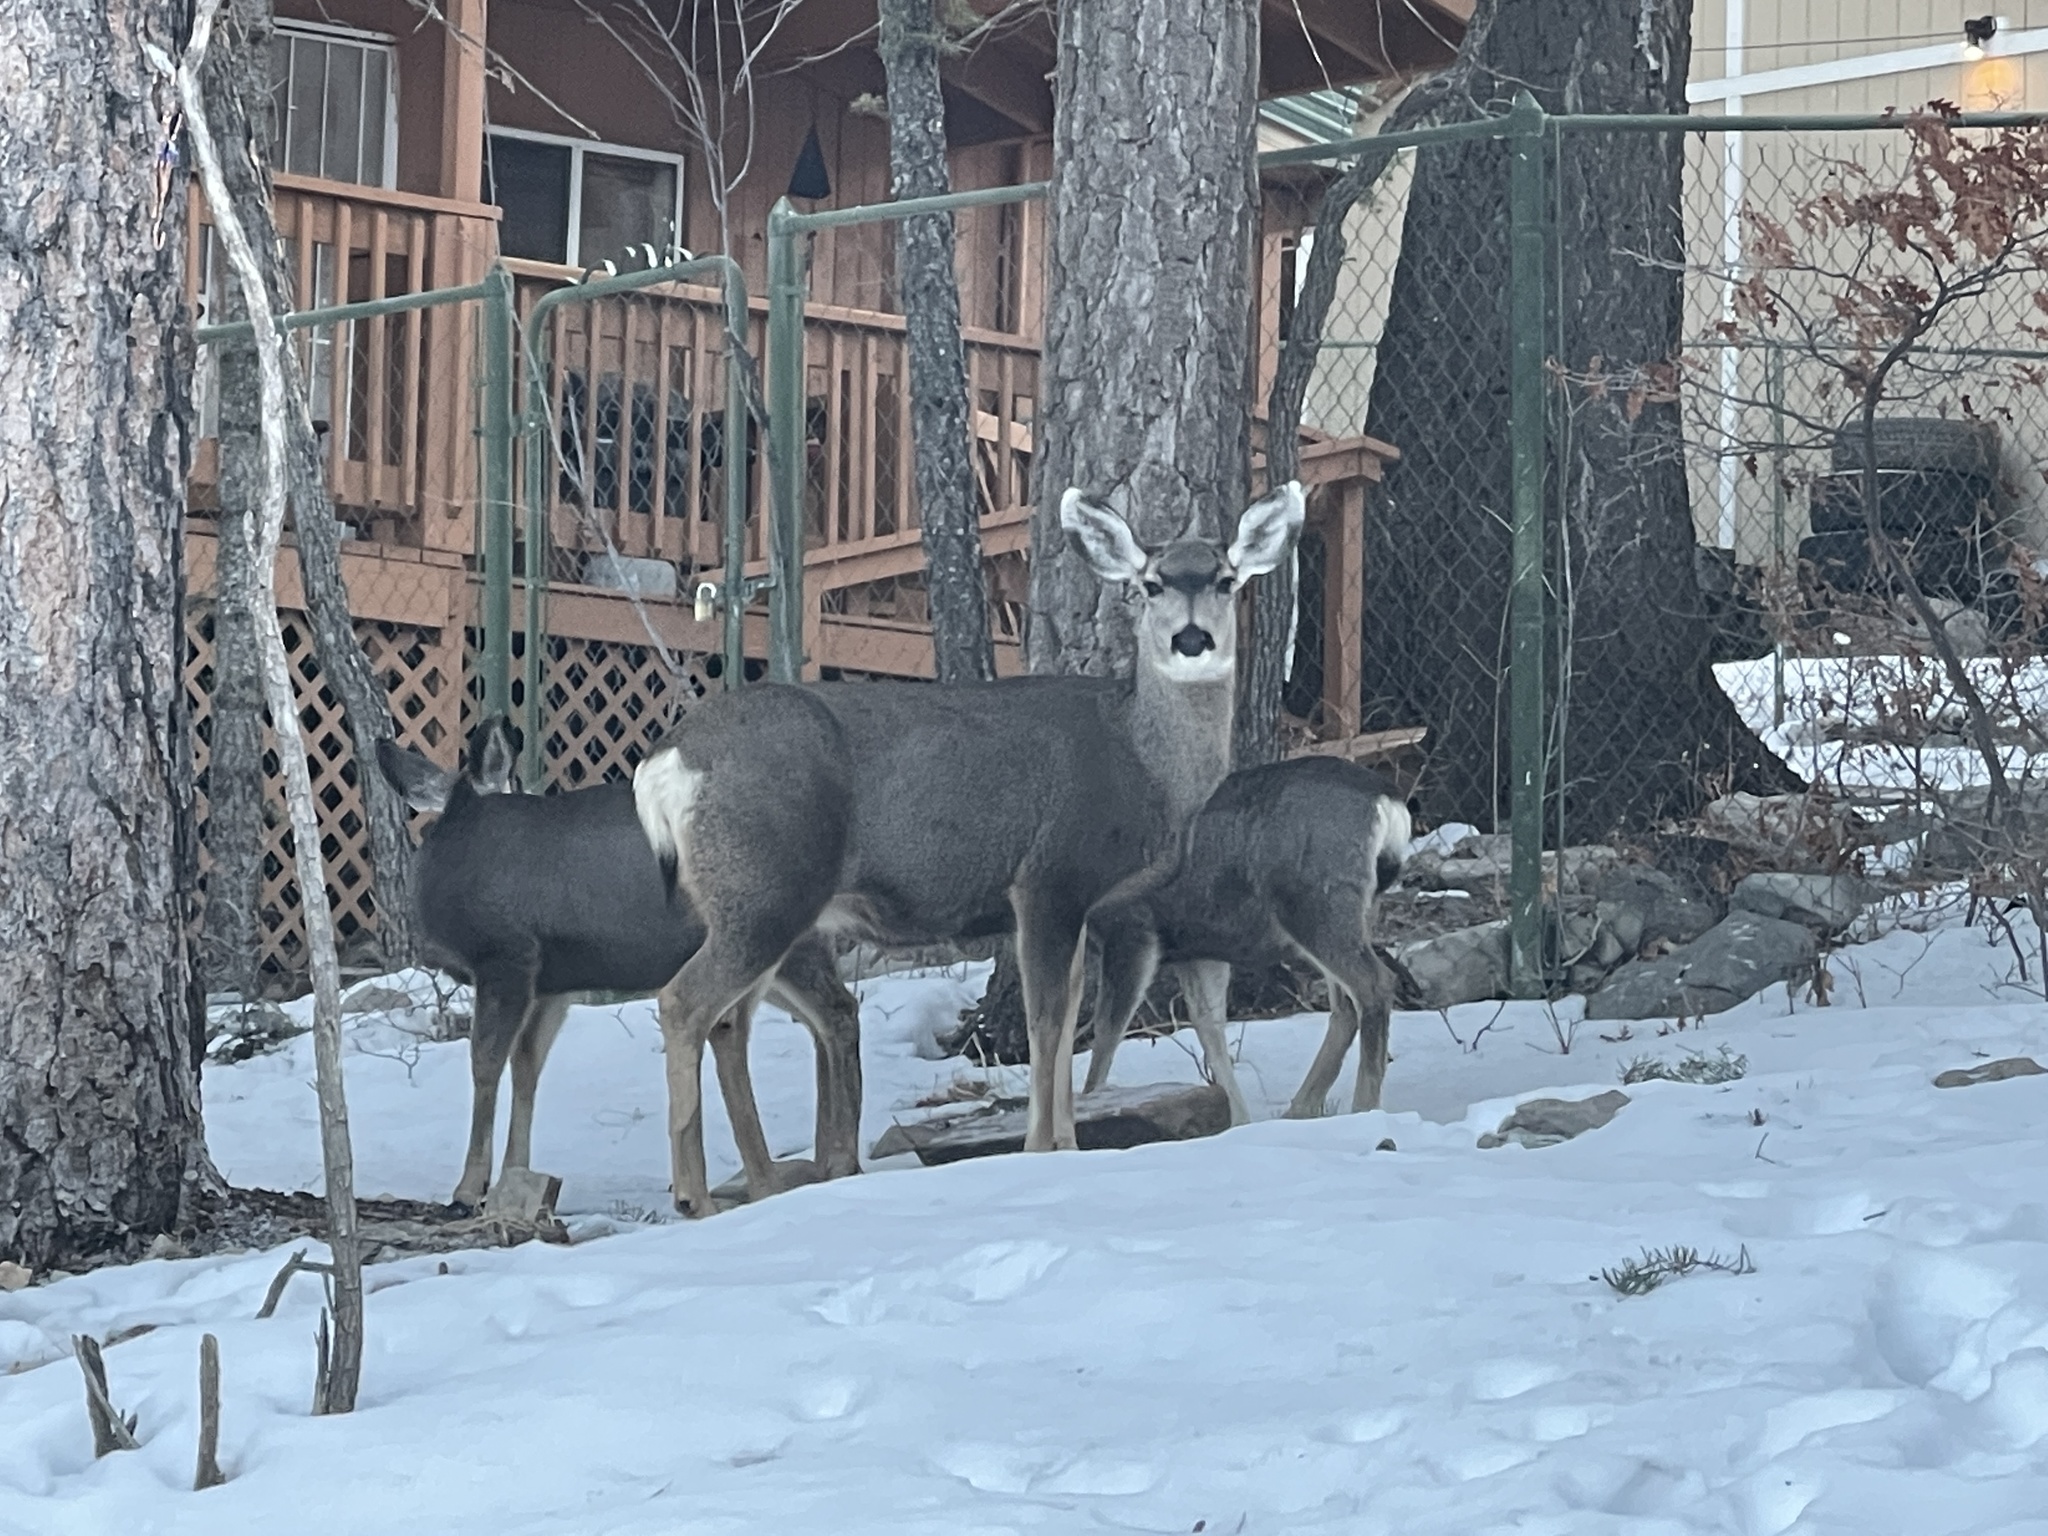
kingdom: Animalia
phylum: Chordata
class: Mammalia
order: Artiodactyla
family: Cervidae
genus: Odocoileus
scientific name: Odocoileus hemionus
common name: Mule deer
